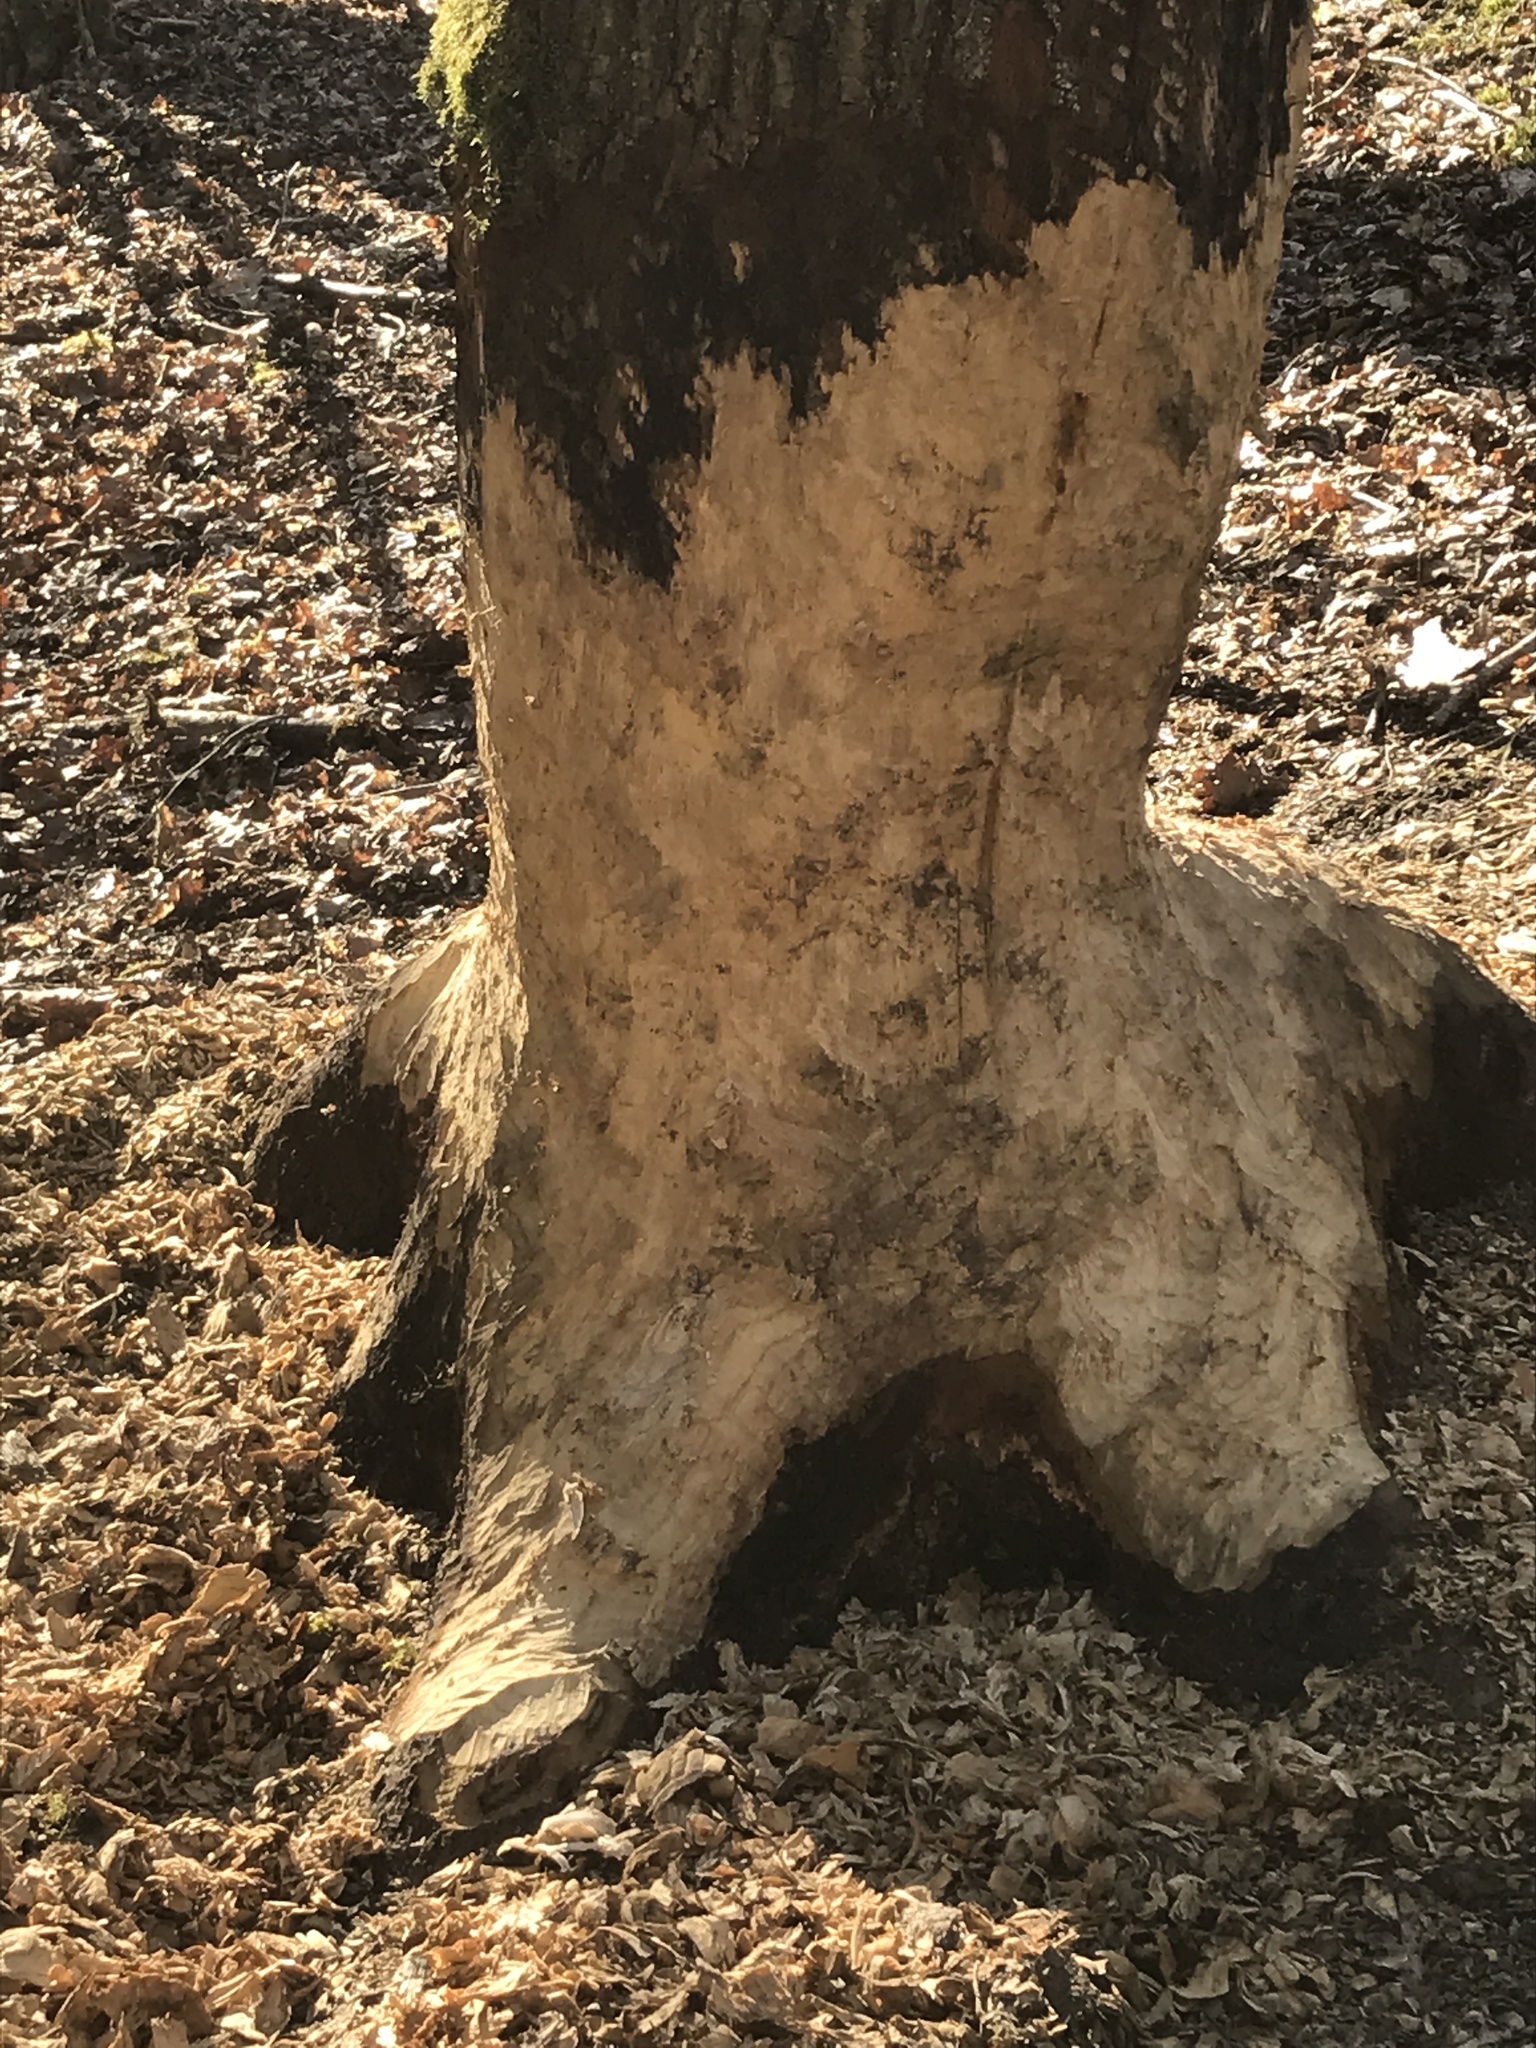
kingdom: Animalia
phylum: Chordata
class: Mammalia
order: Rodentia
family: Castoridae
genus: Castor
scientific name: Castor fiber
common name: Eurasian beaver
